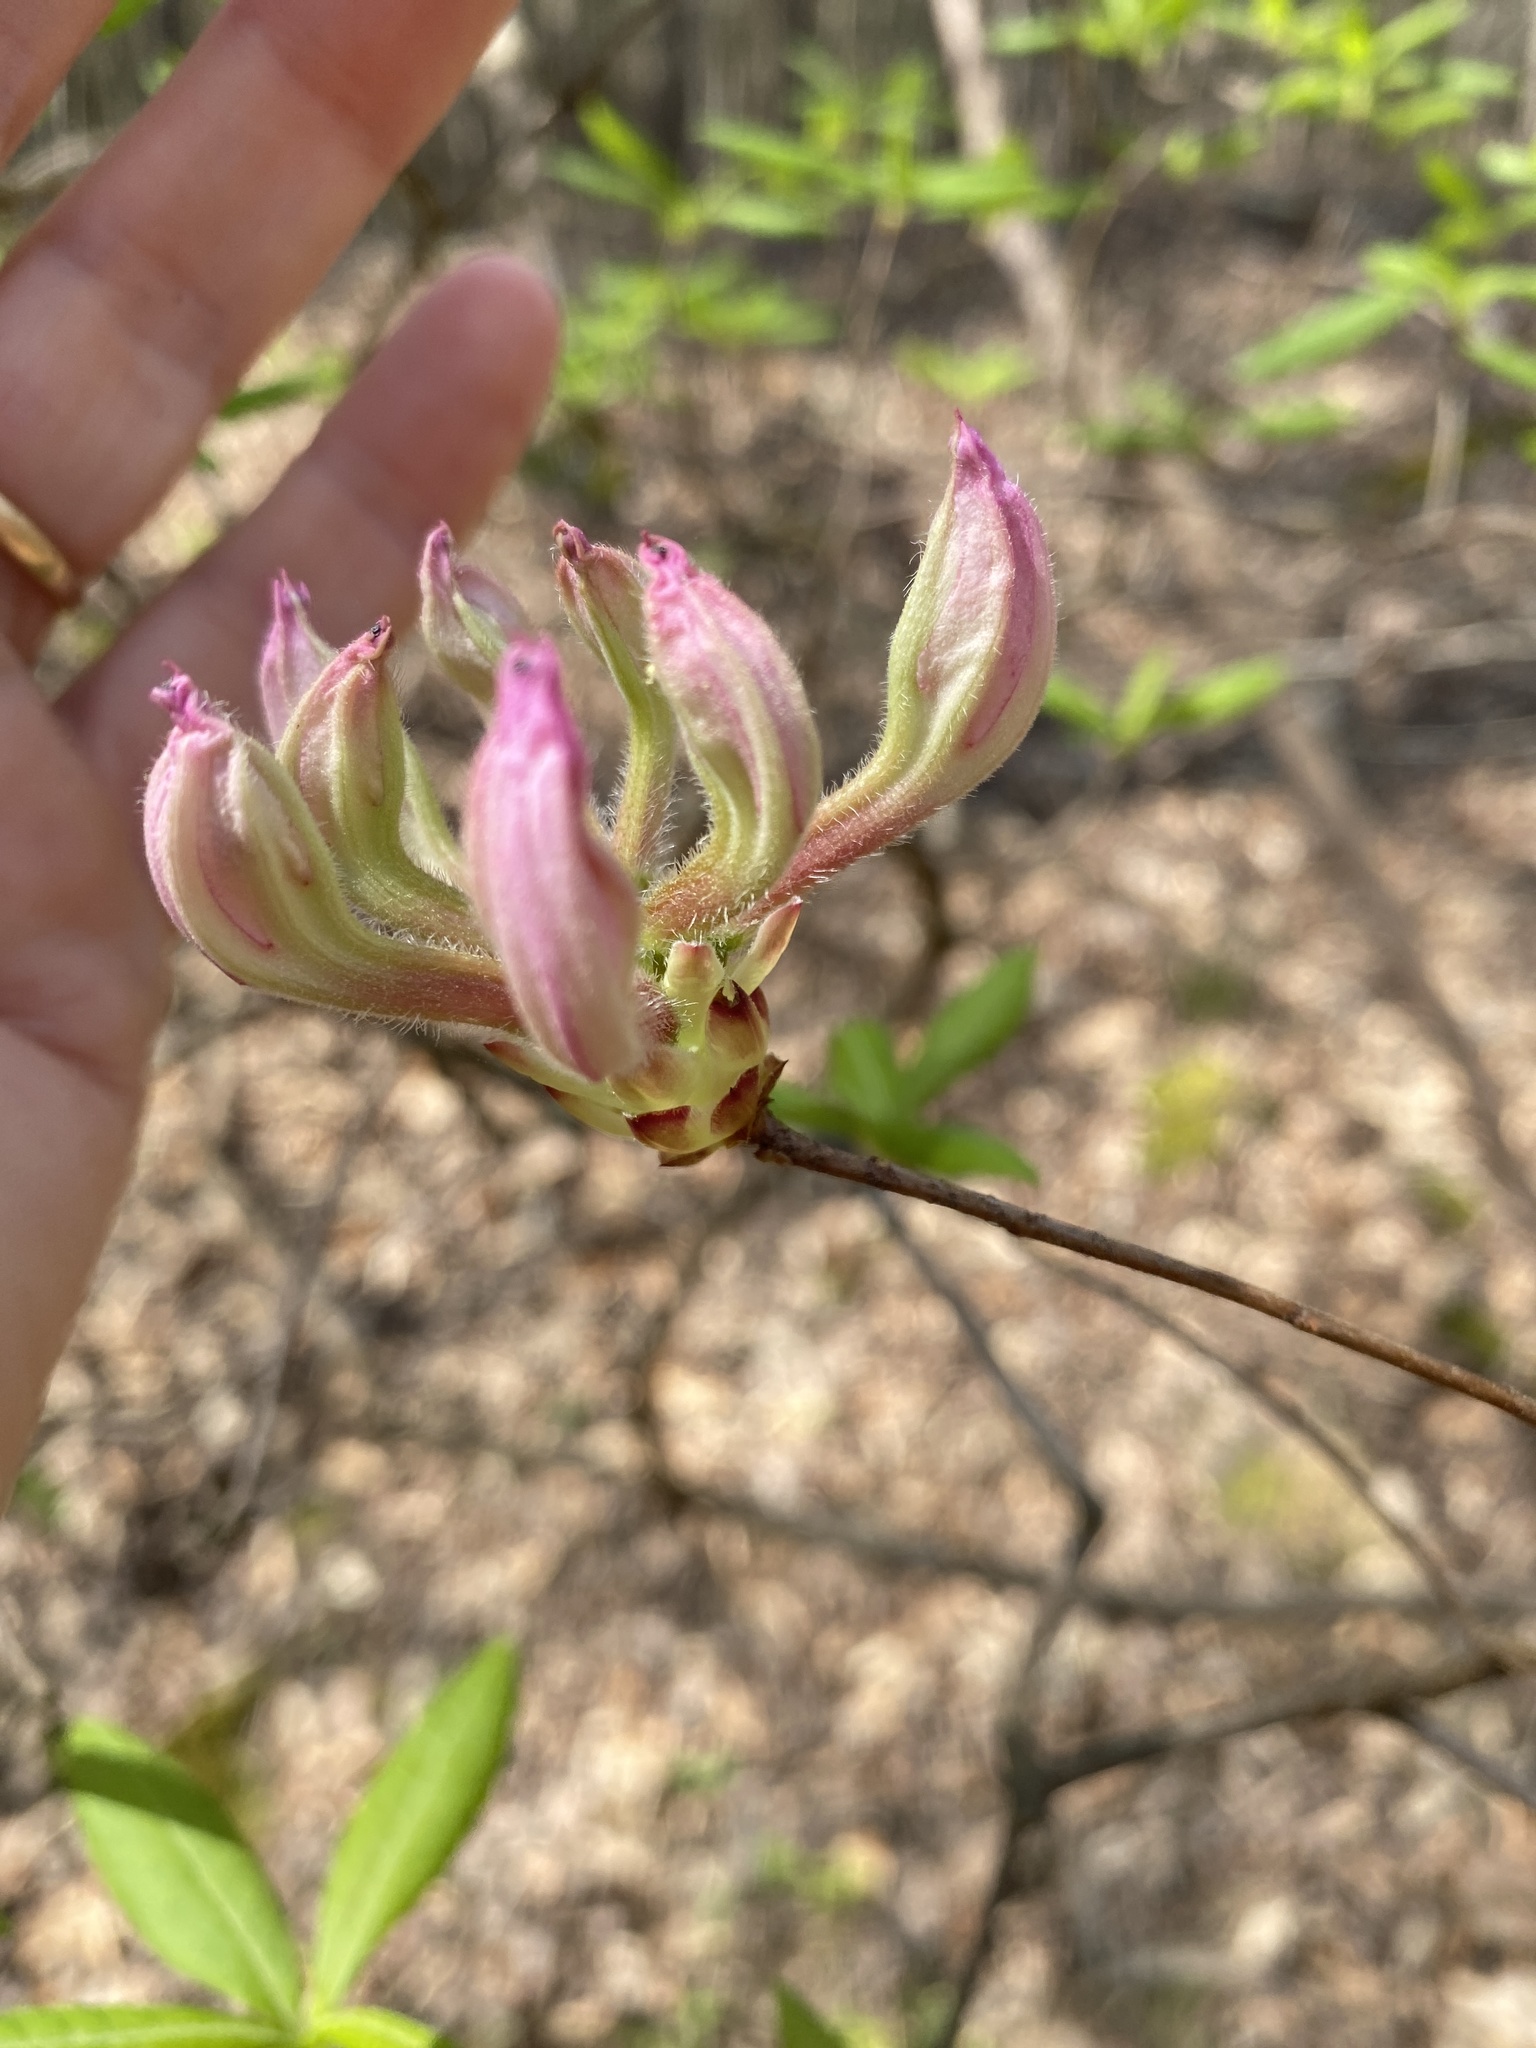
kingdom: Plantae
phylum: Tracheophyta
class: Magnoliopsida
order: Ericales
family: Ericaceae
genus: Rhododendron
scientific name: Rhododendron periclymenoides
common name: Election-pink
